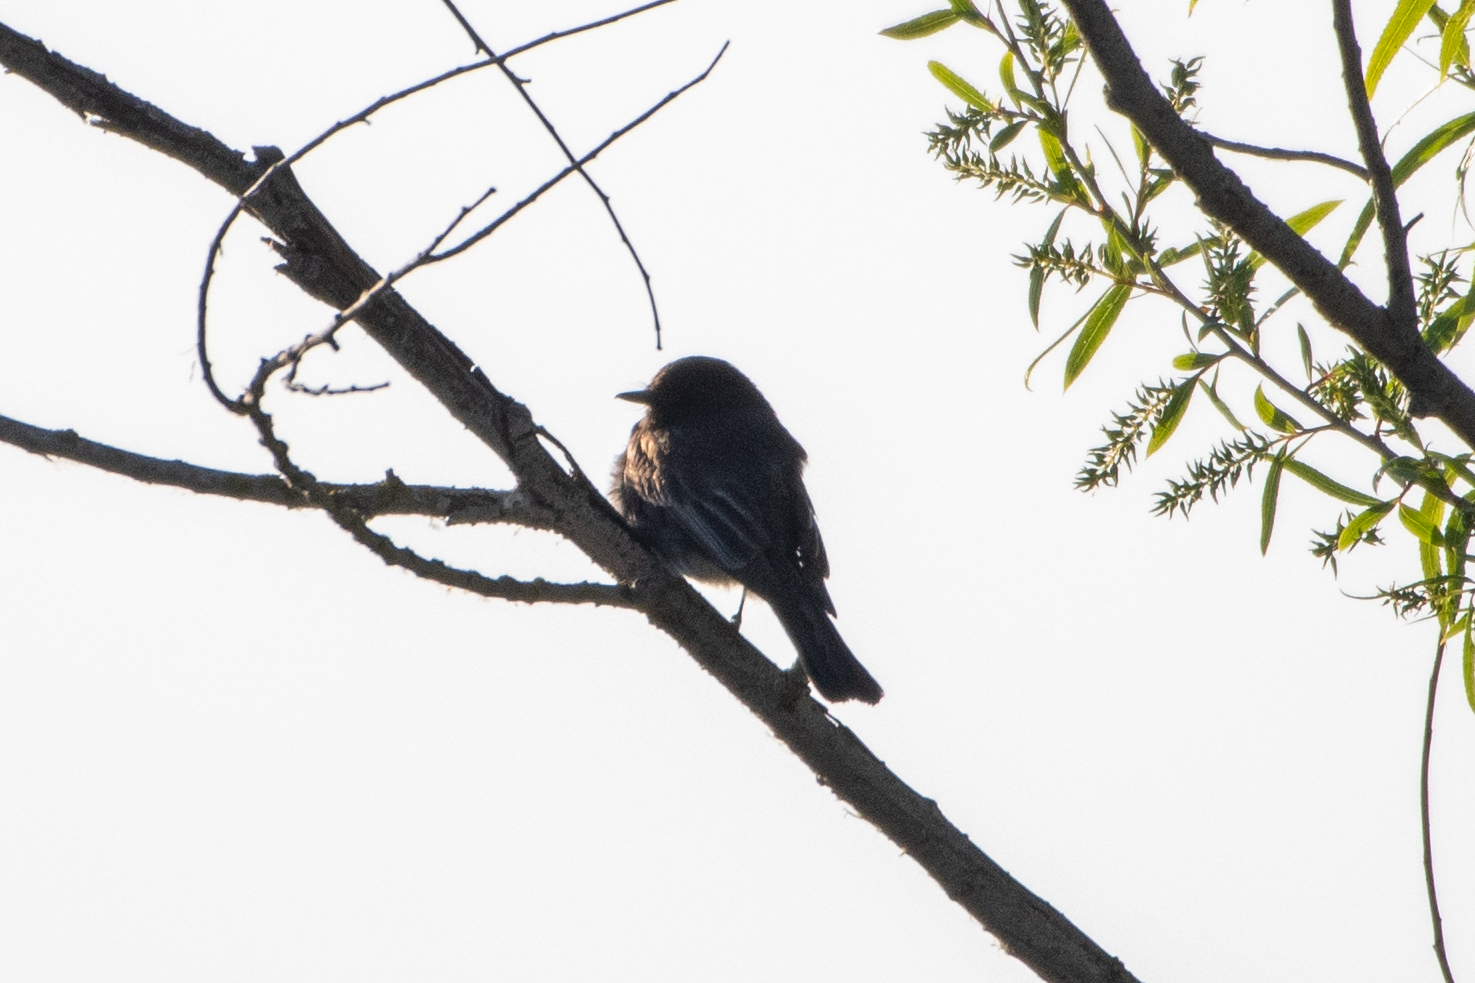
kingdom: Animalia
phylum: Chordata
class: Aves
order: Passeriformes
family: Tyrannidae
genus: Sayornis
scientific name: Sayornis nigricans
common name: Black phoebe
